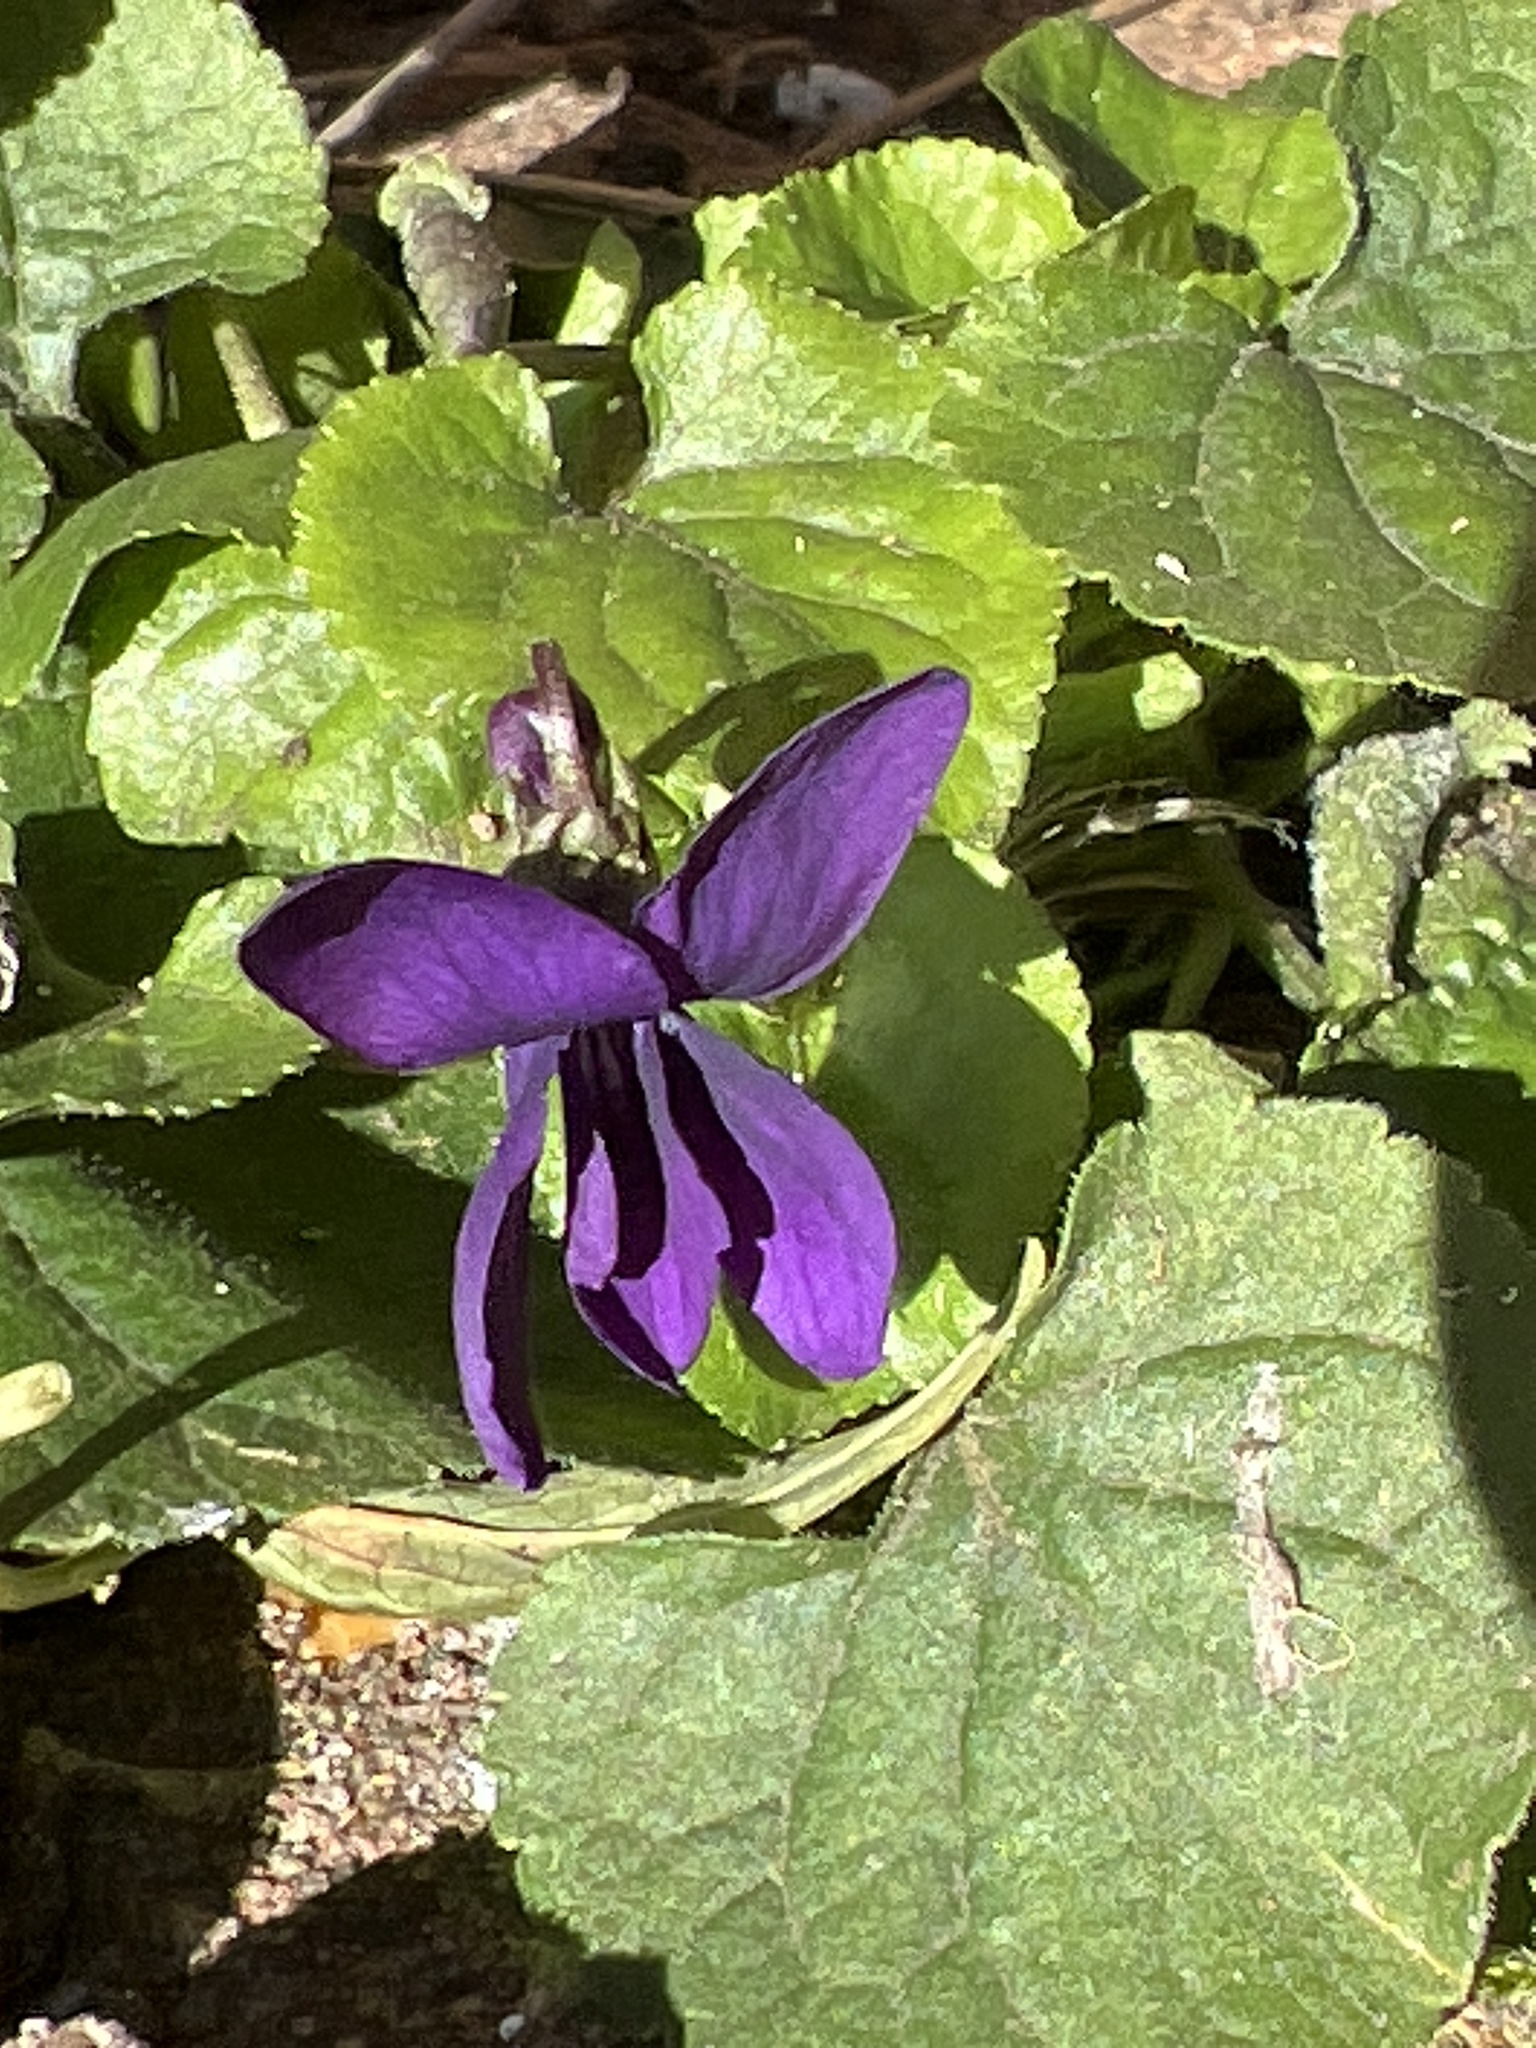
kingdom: Plantae
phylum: Tracheophyta
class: Magnoliopsida
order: Malpighiales
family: Violaceae
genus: Viola
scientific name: Viola odorata
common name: Sweet violet
